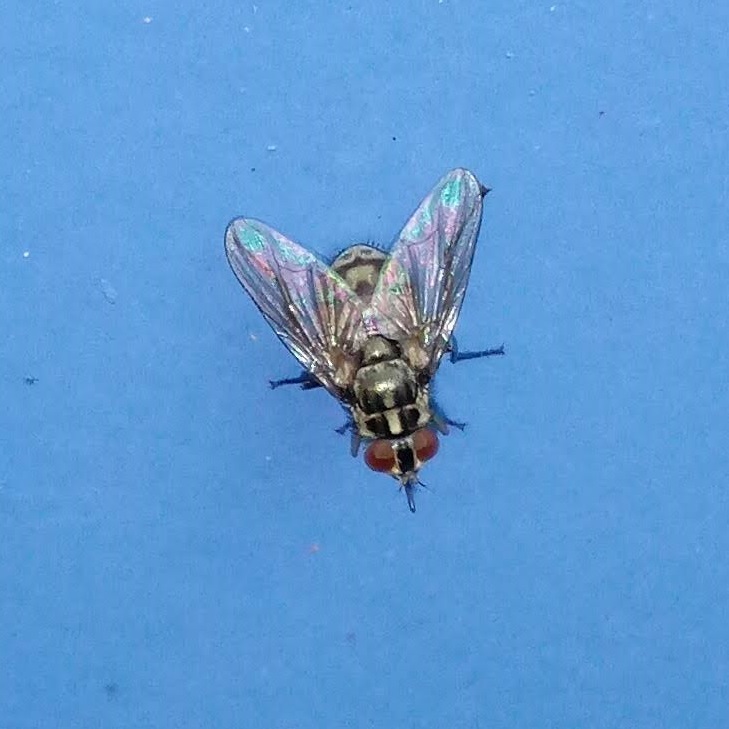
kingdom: Animalia
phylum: Arthropoda
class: Insecta
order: Diptera
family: Muscidae
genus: Stomoxys
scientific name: Stomoxys calcitrans
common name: Stable fly
